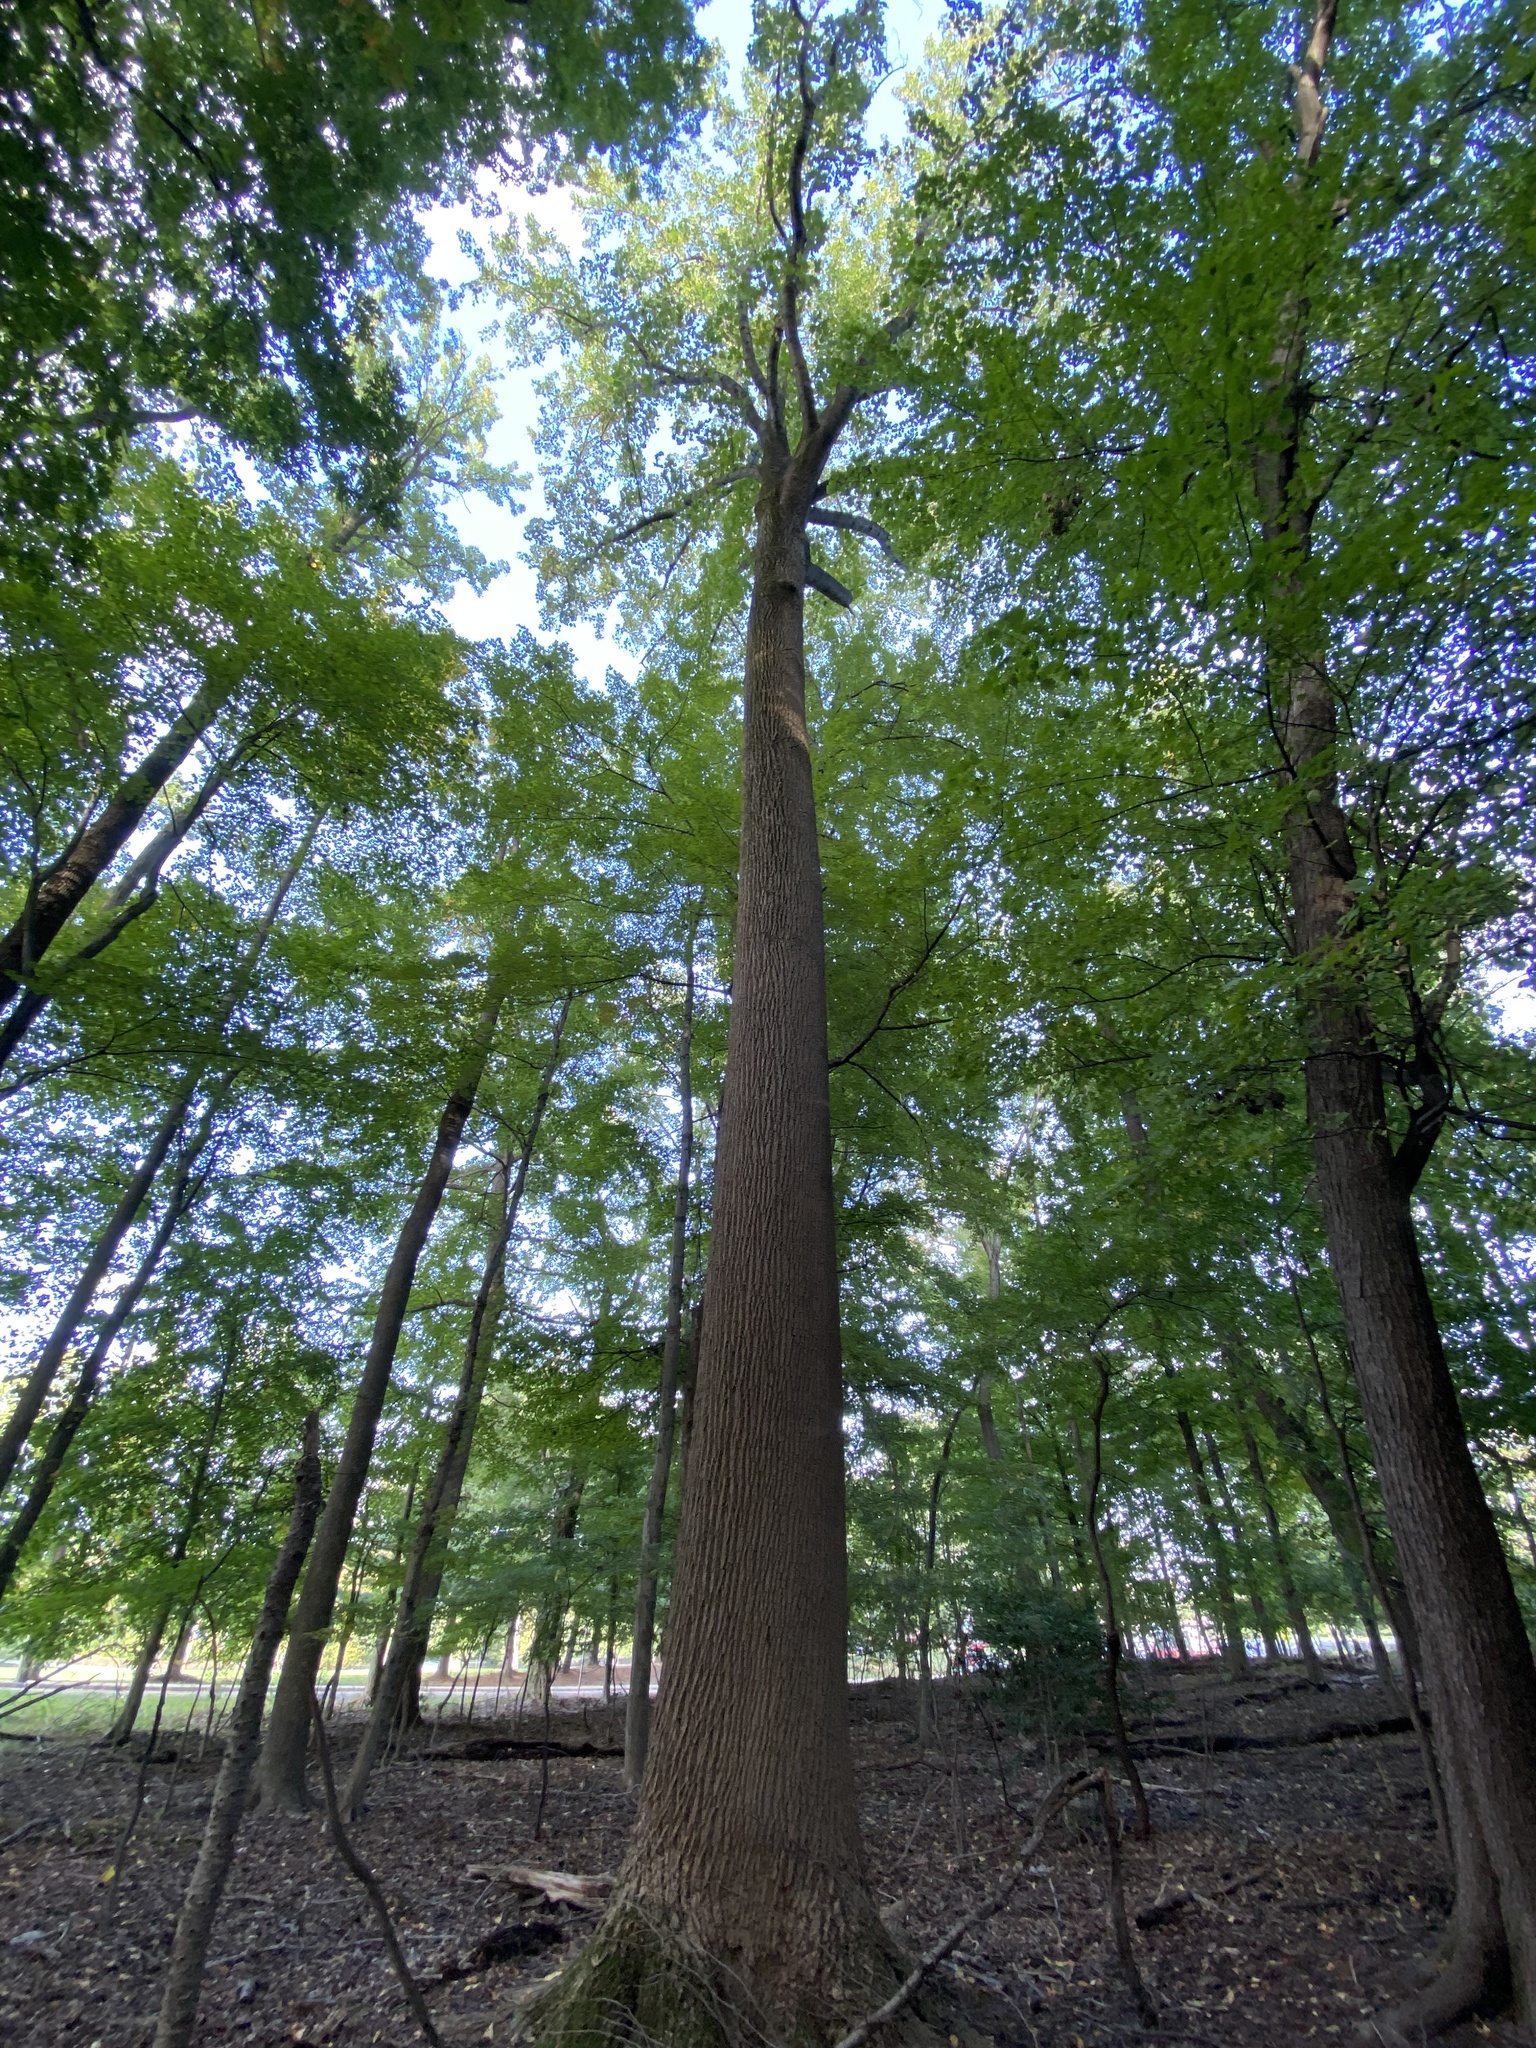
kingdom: Plantae
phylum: Tracheophyta
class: Magnoliopsida
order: Magnoliales
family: Magnoliaceae
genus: Liriodendron
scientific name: Liriodendron tulipifera
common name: Tulip tree
